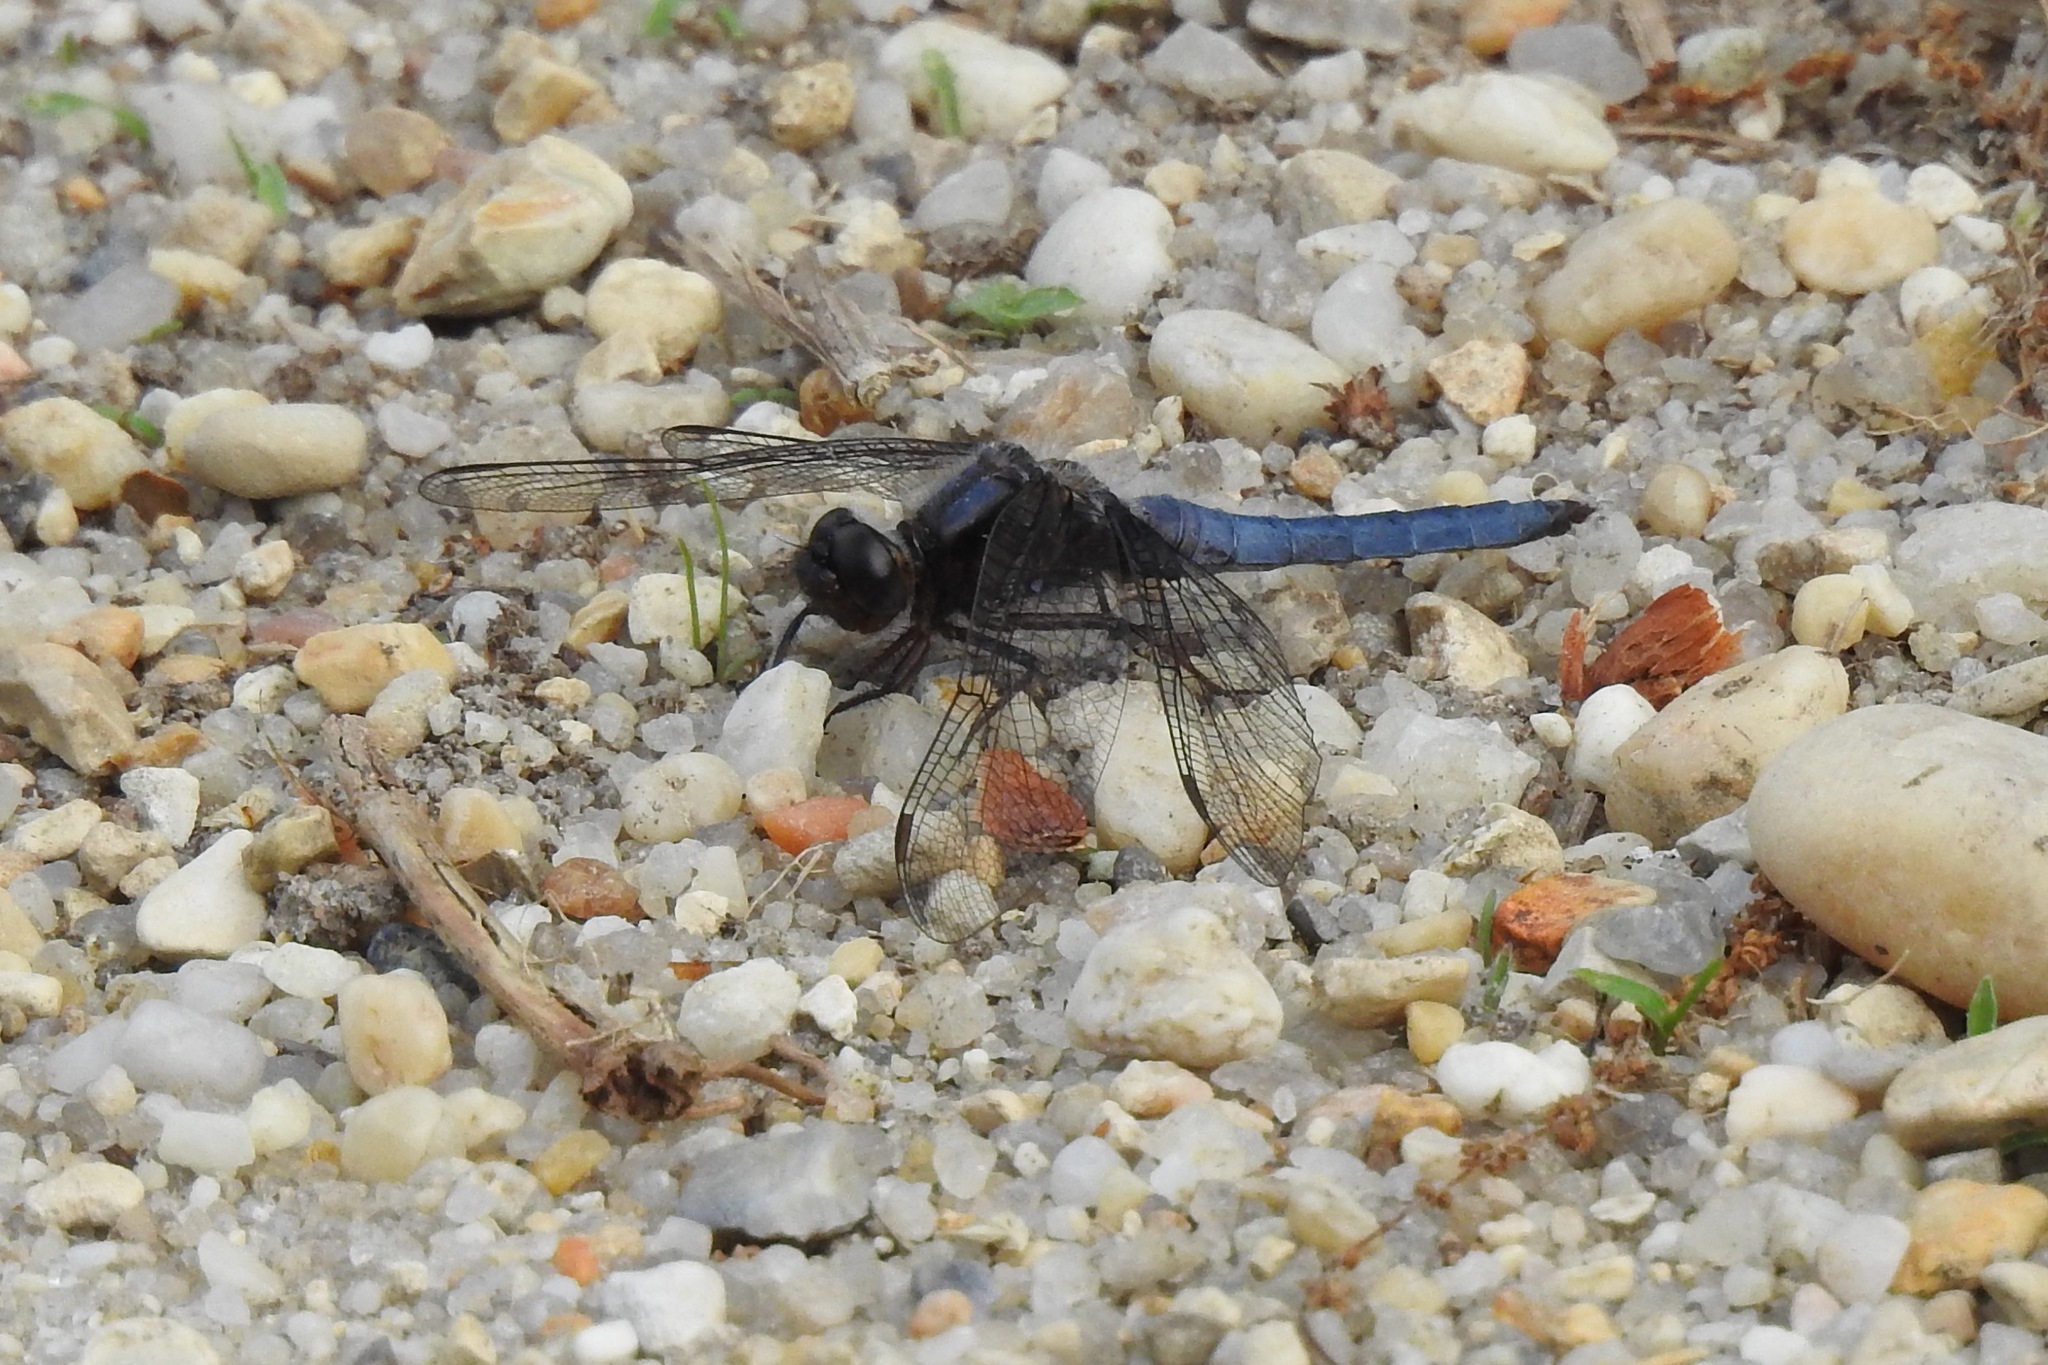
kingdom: Animalia
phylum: Arthropoda
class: Insecta
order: Odonata
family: Libellulidae
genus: Ladona
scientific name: Ladona deplanata
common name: Blue corporal
